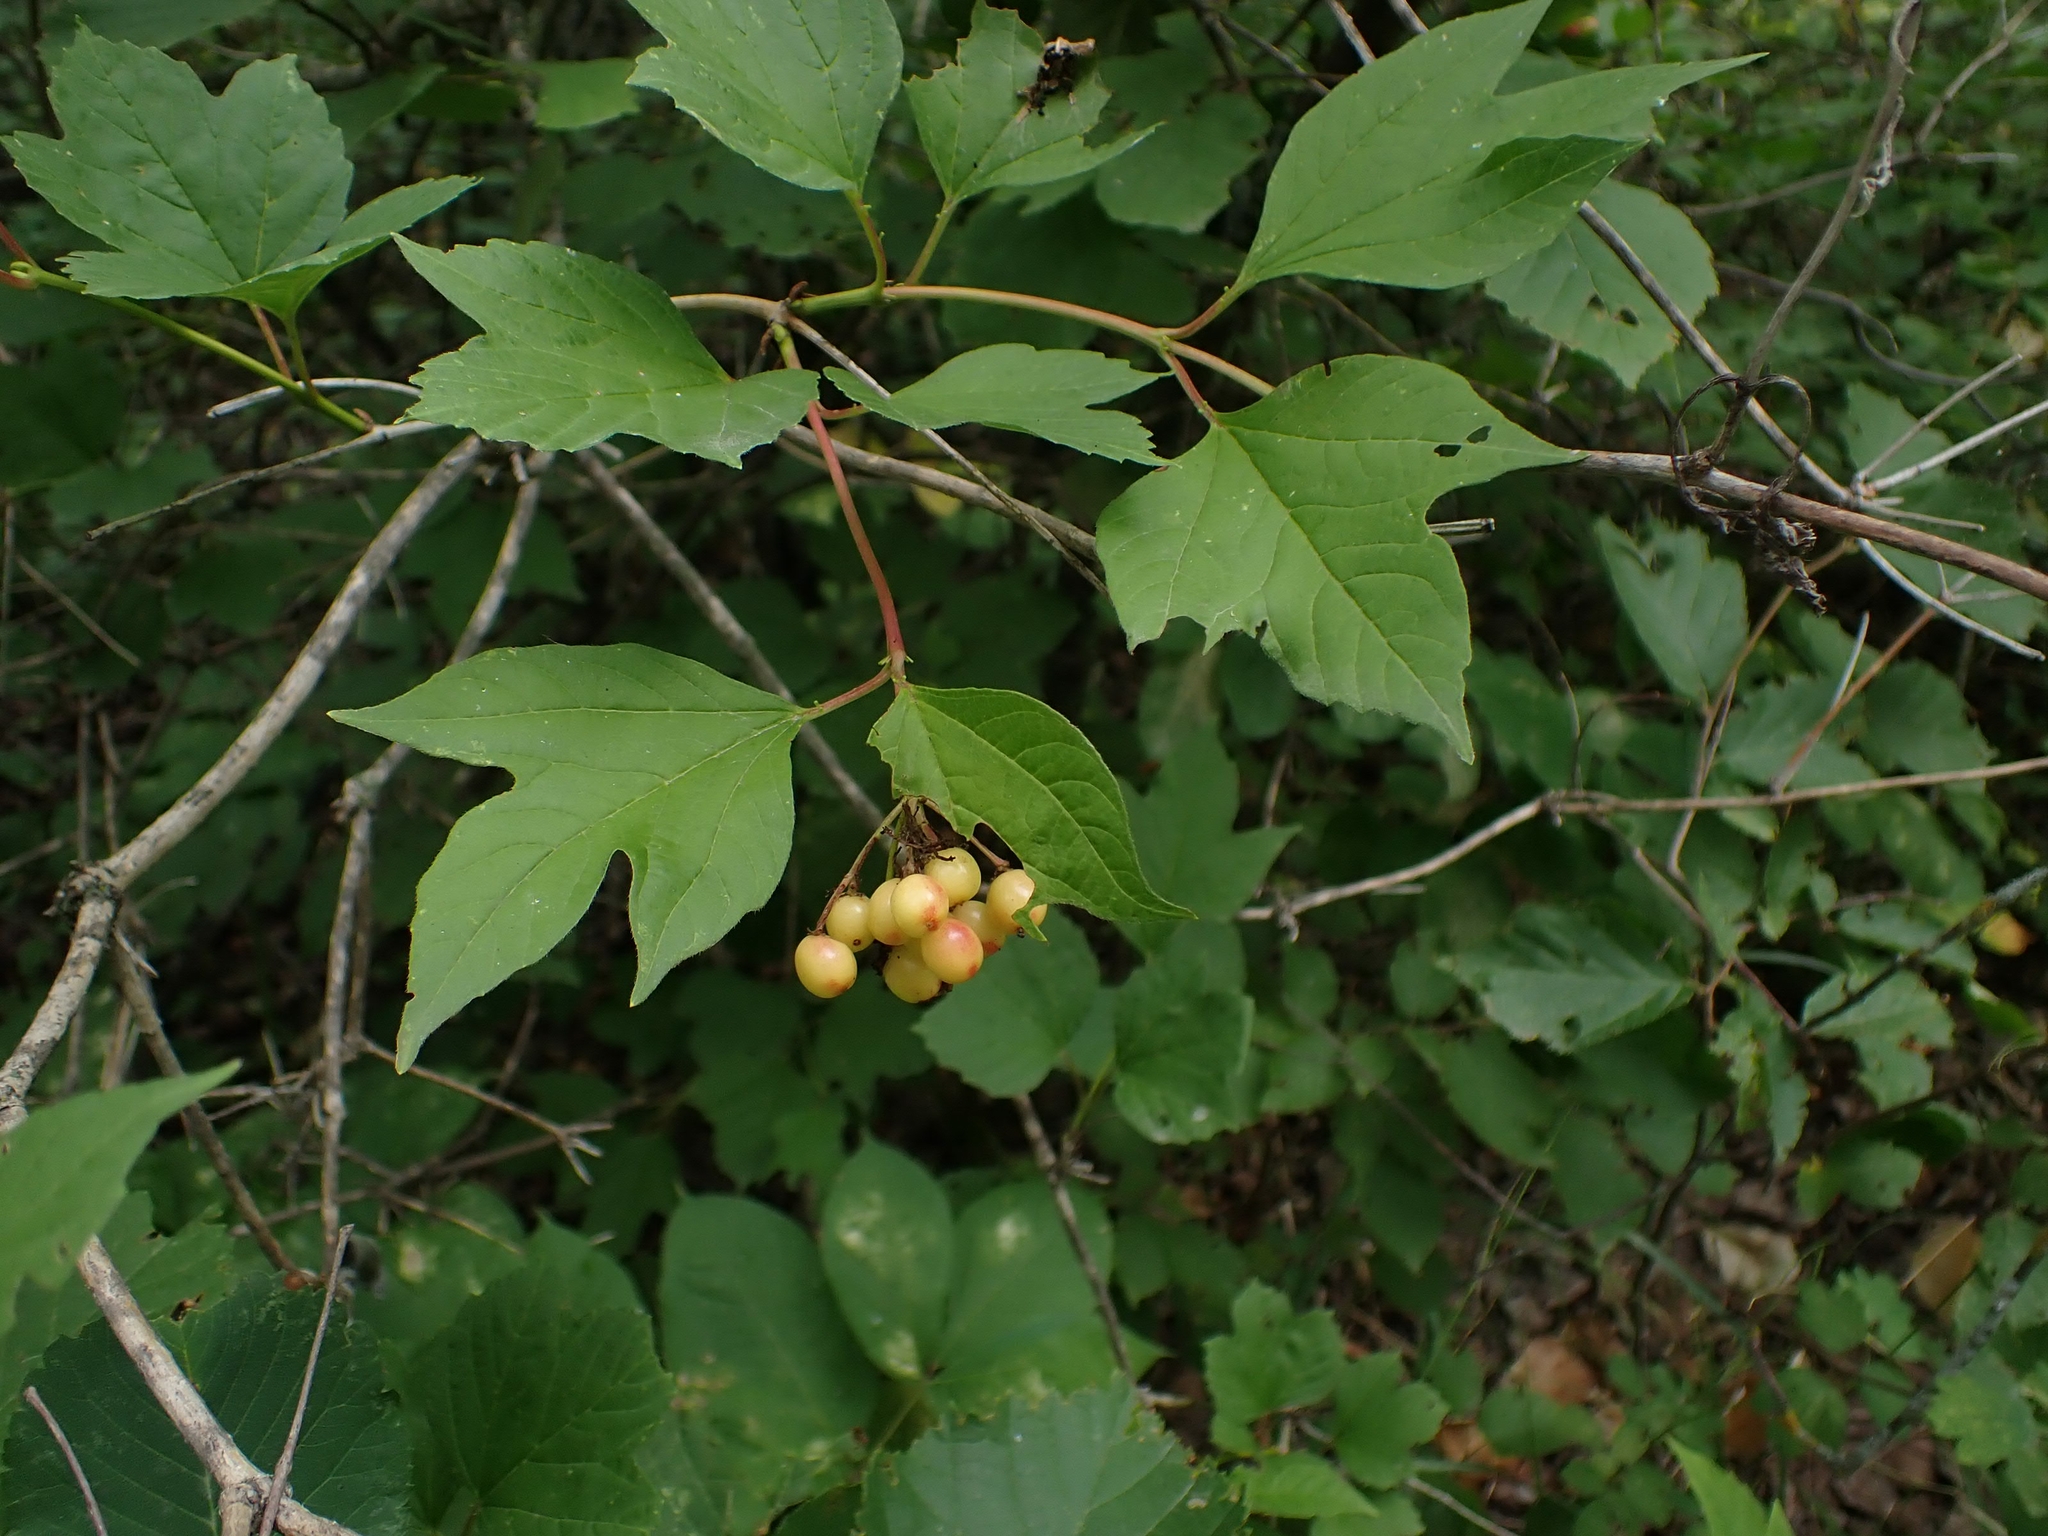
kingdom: Plantae
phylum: Tracheophyta
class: Magnoliopsida
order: Dipsacales
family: Viburnaceae
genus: Viburnum
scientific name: Viburnum trilobum
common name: American cranberrybush
